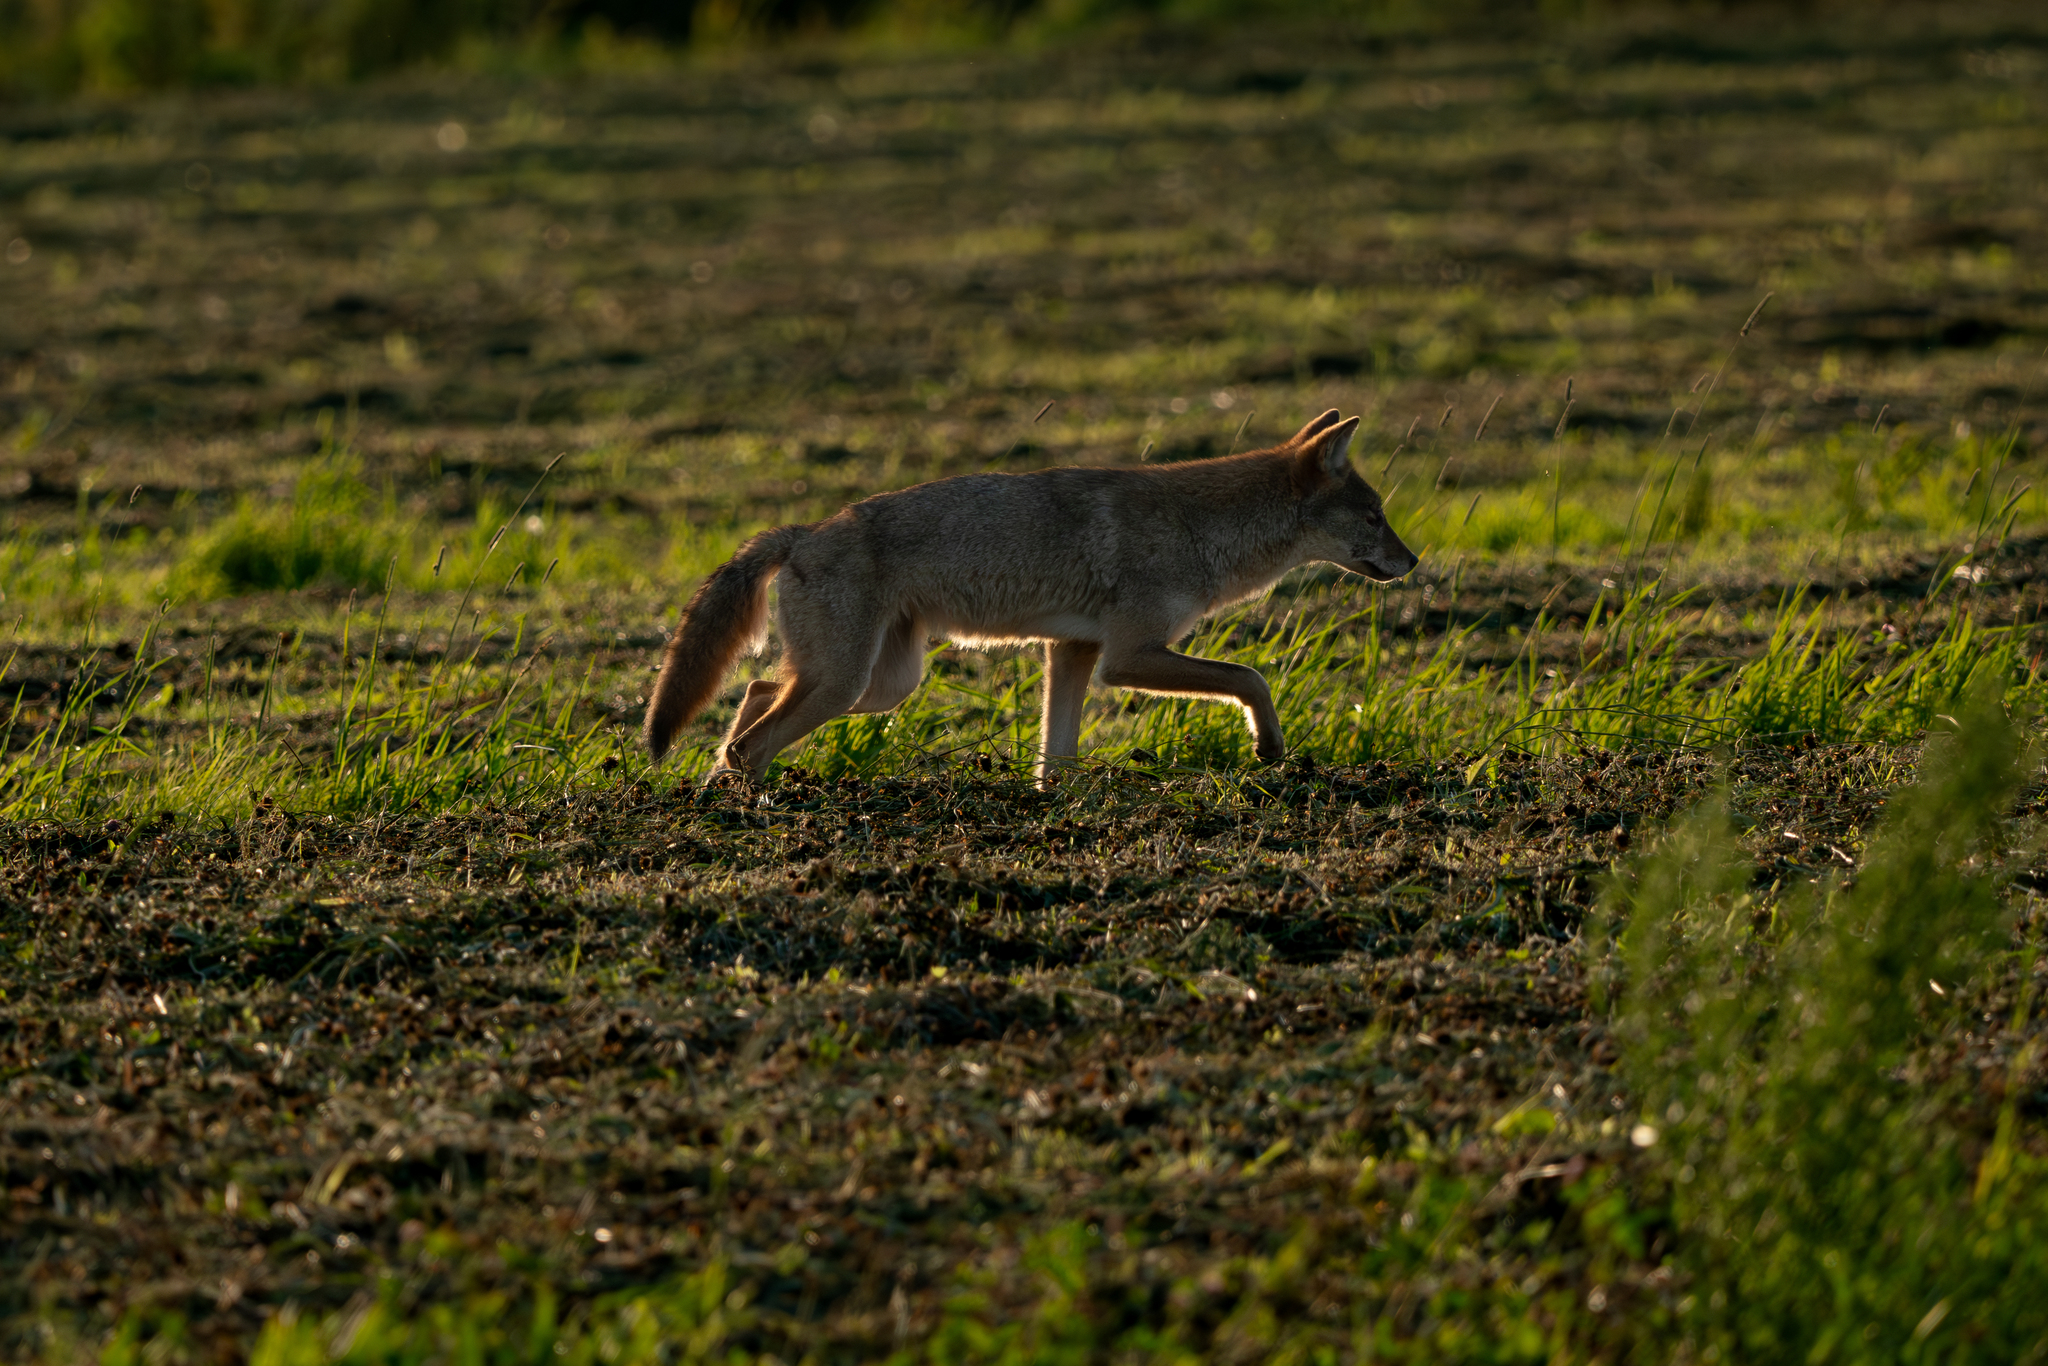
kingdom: Animalia
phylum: Chordata
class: Mammalia
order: Carnivora
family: Canidae
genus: Canis
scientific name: Canis latrans
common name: Coyote
